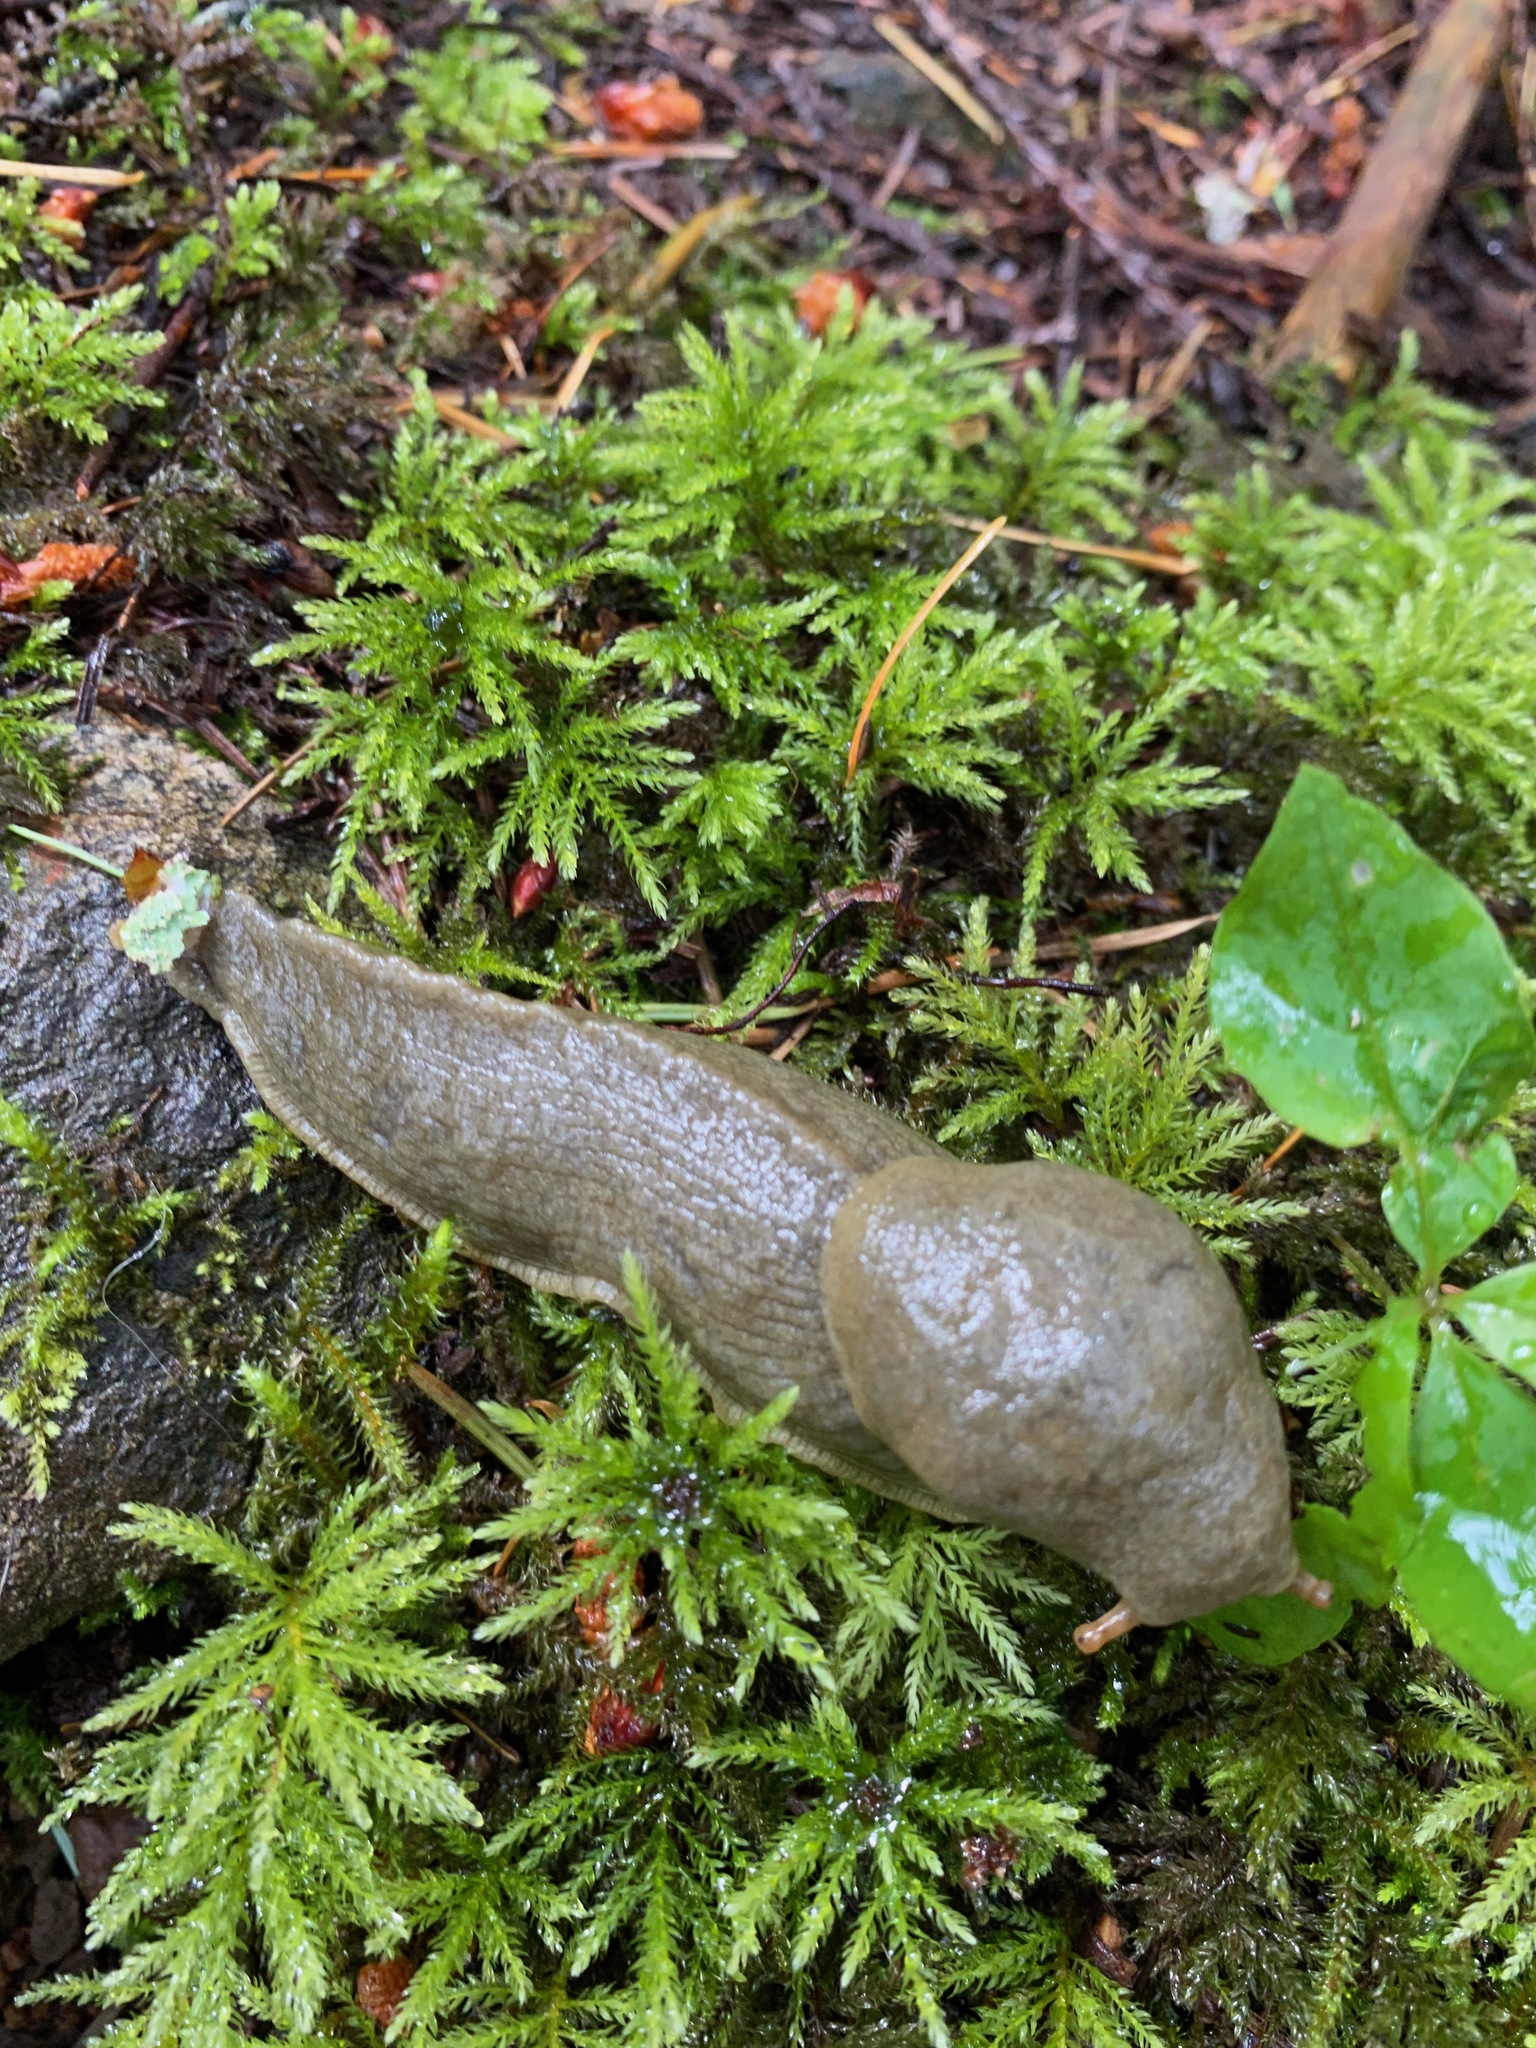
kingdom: Animalia
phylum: Mollusca
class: Gastropoda
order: Stylommatophora
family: Ariolimacidae
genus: Ariolimax
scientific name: Ariolimax columbianus
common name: Pacific banana slug
